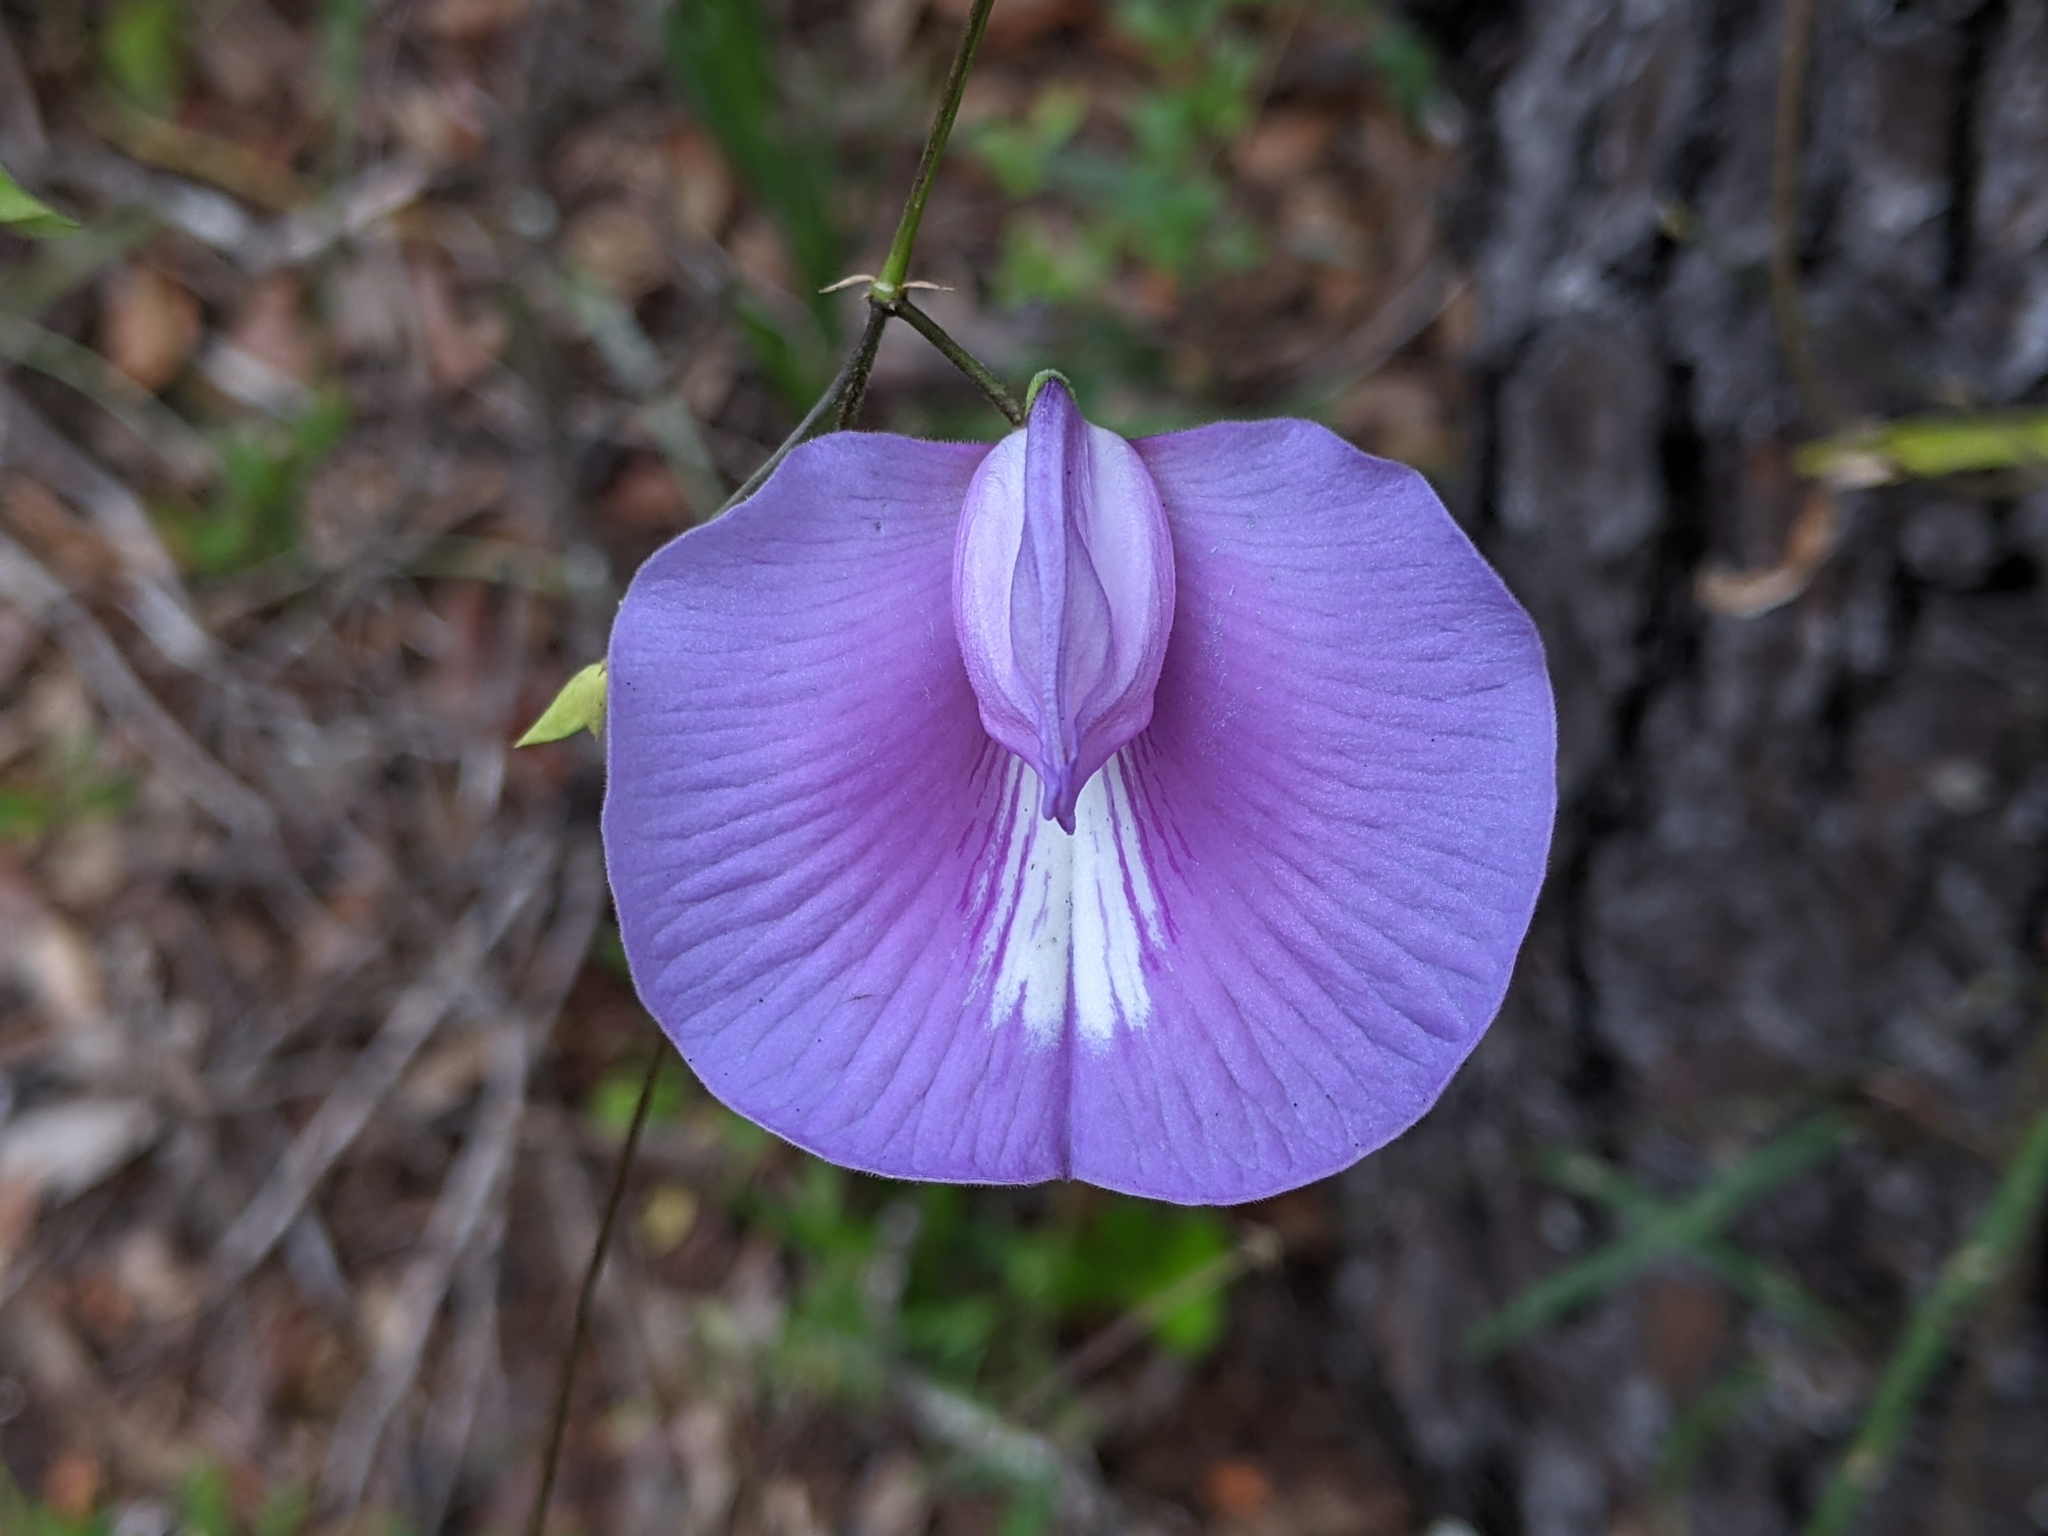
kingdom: Plantae
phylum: Tracheophyta
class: Magnoliopsida
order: Fabales
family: Fabaceae
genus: Centrosema
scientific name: Centrosema virginianum
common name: Butterfly-pea
